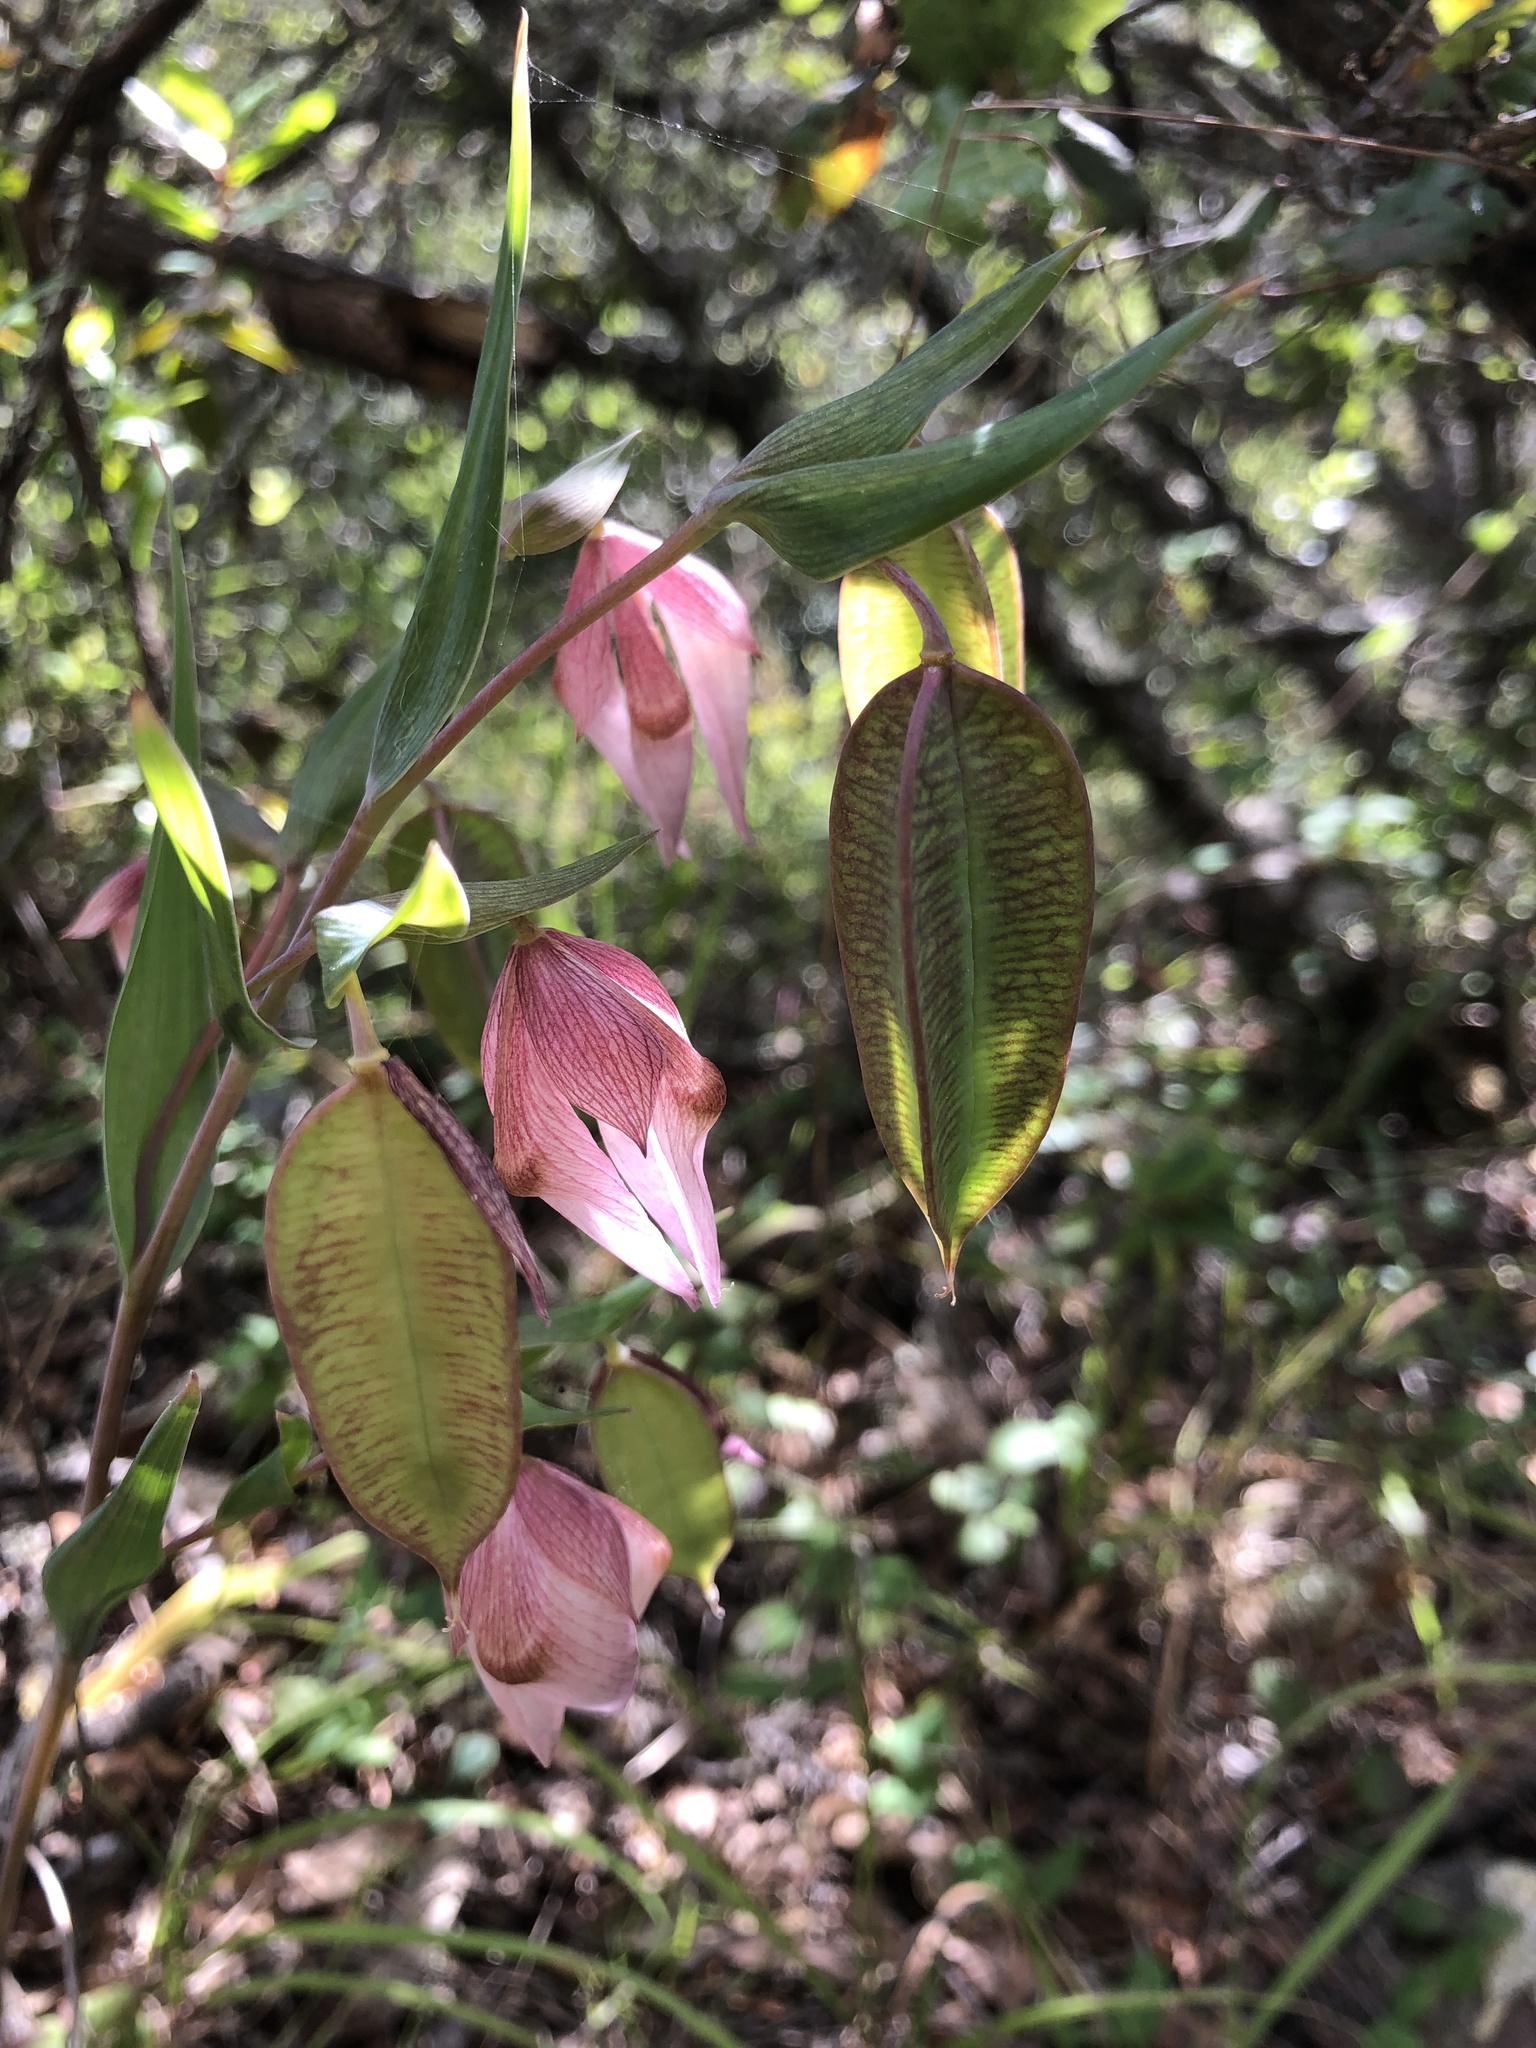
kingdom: Plantae
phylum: Tracheophyta
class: Liliopsida
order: Liliales
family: Liliaceae
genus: Calochortus
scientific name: Calochortus albus
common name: Fairy-lantern
